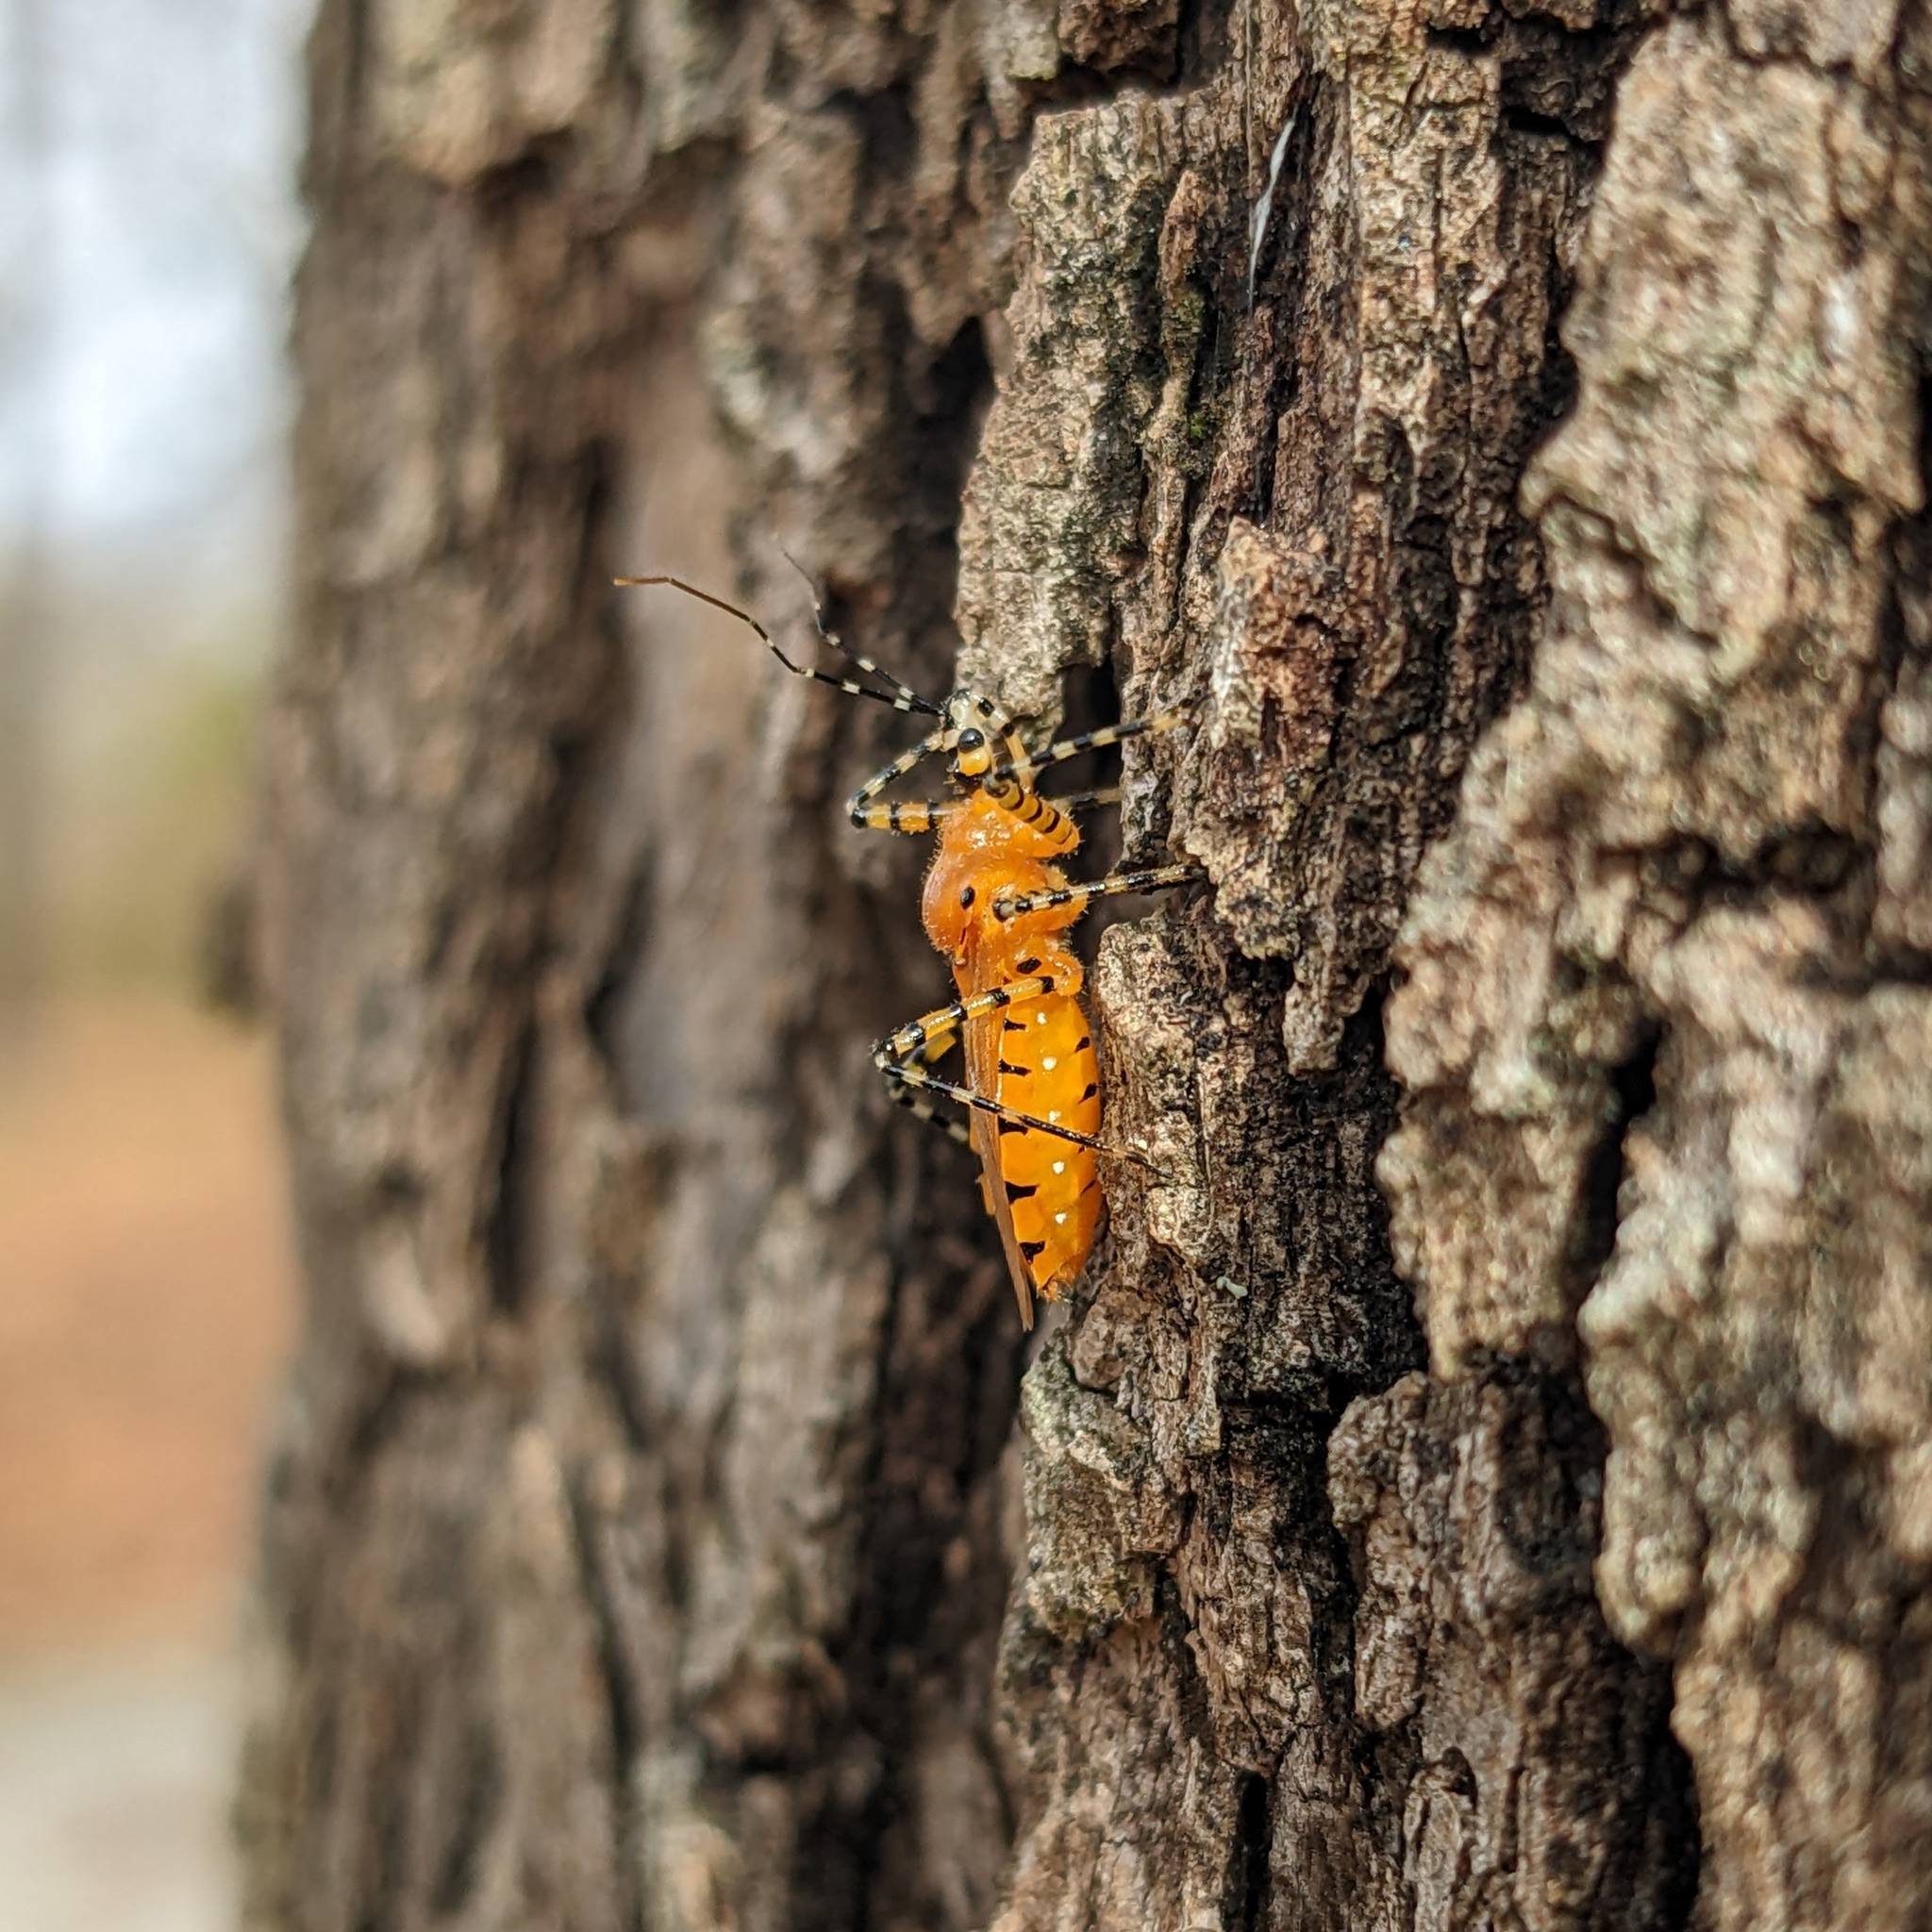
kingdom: Animalia
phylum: Arthropoda
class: Insecta
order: Hemiptera
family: Reduviidae
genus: Pselliopus
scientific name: Pselliopus barberi
